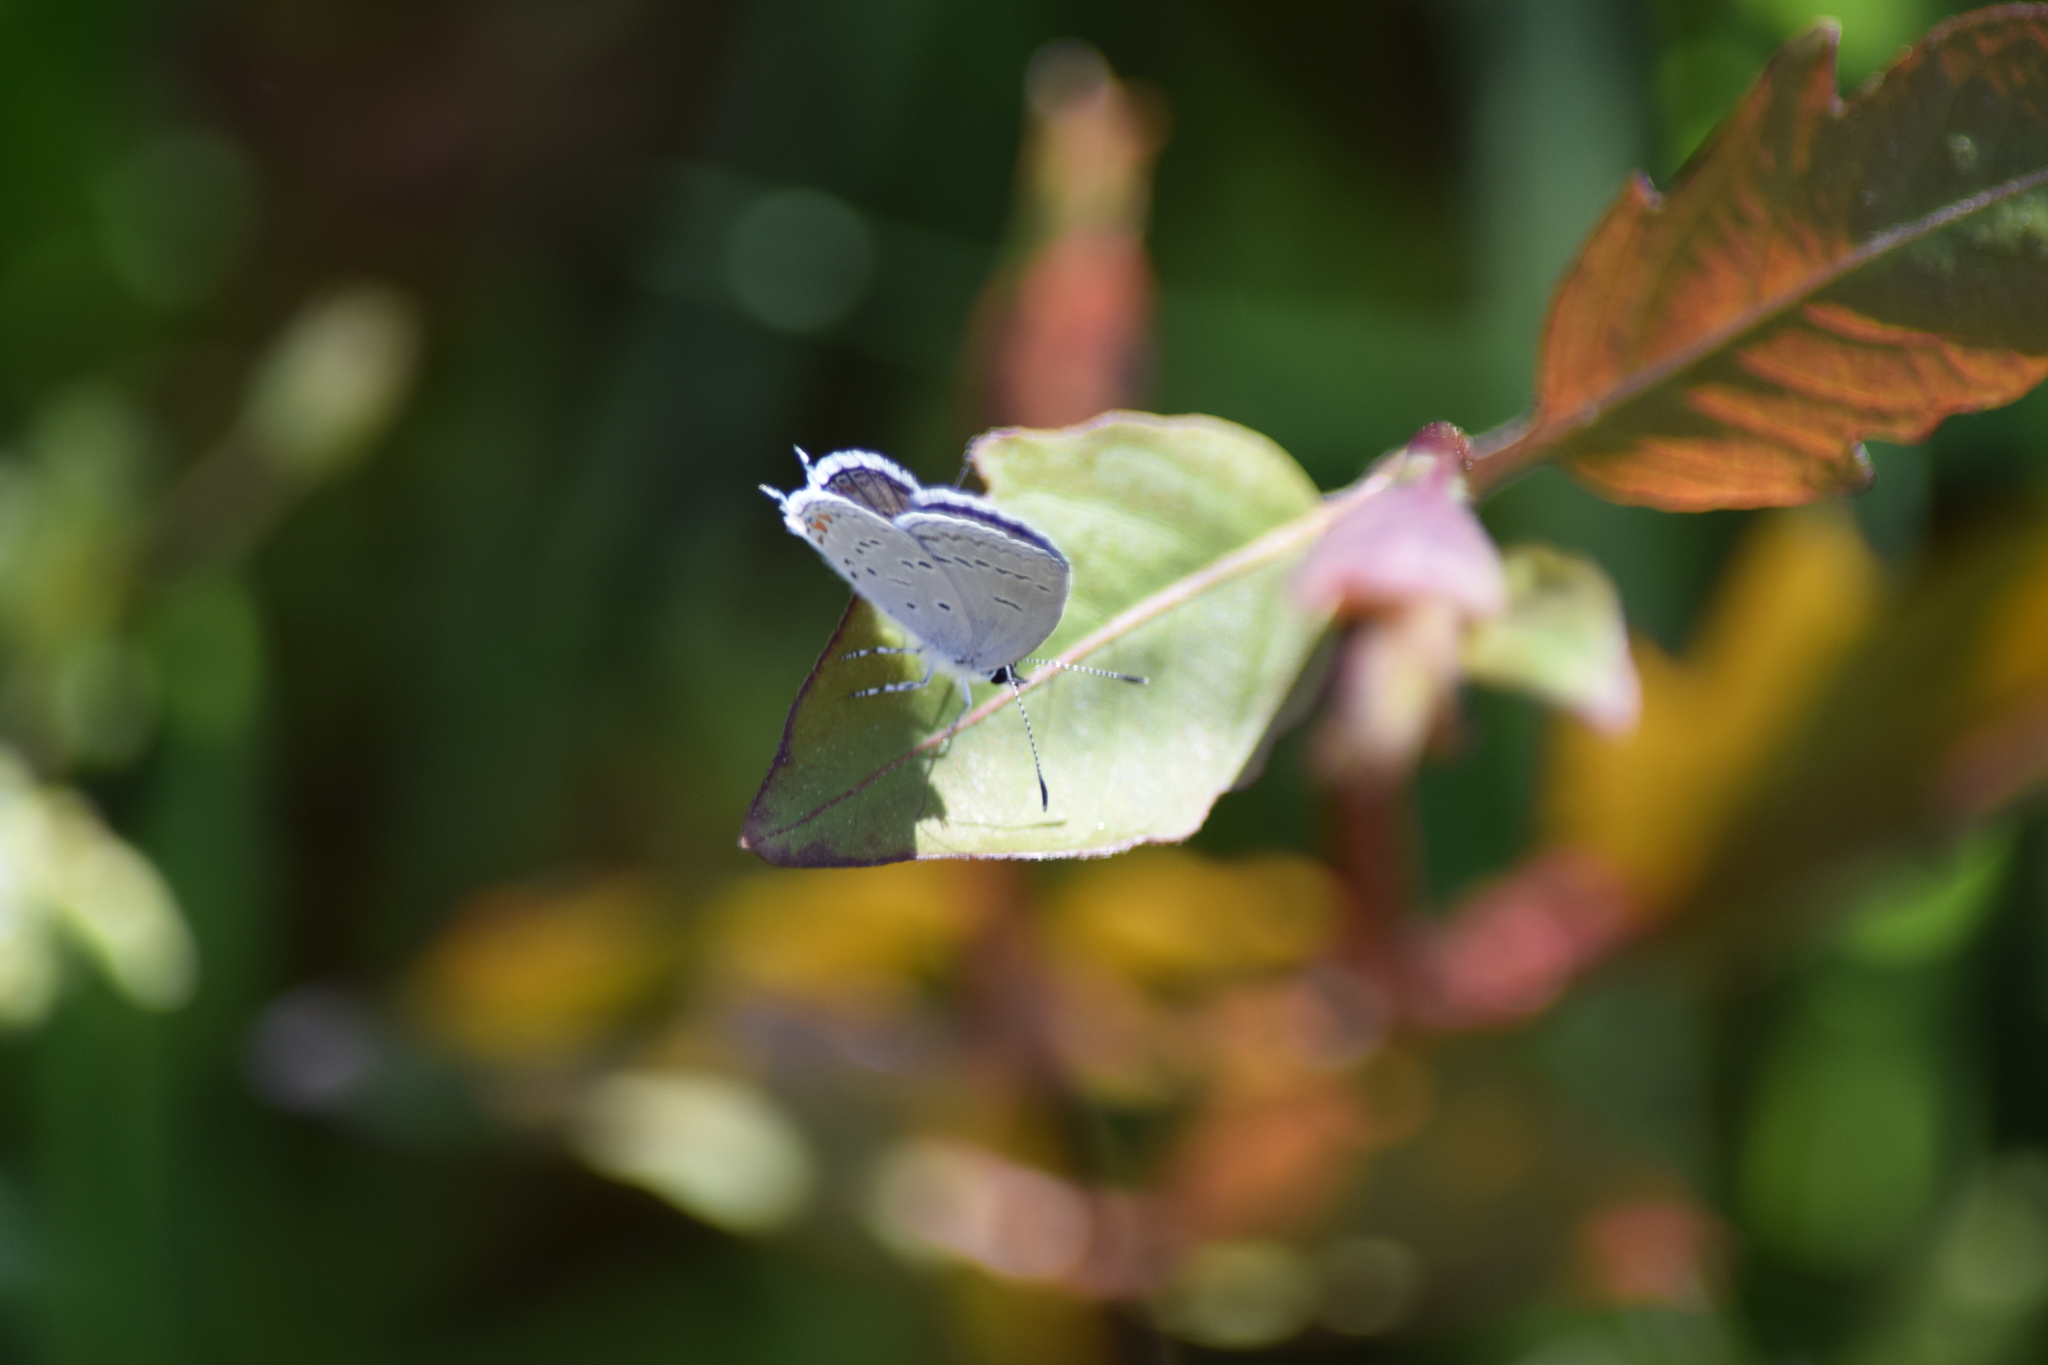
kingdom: Animalia
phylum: Arthropoda
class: Insecta
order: Lepidoptera
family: Lycaenidae
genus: Elkalyce
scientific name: Elkalyce comyntas
